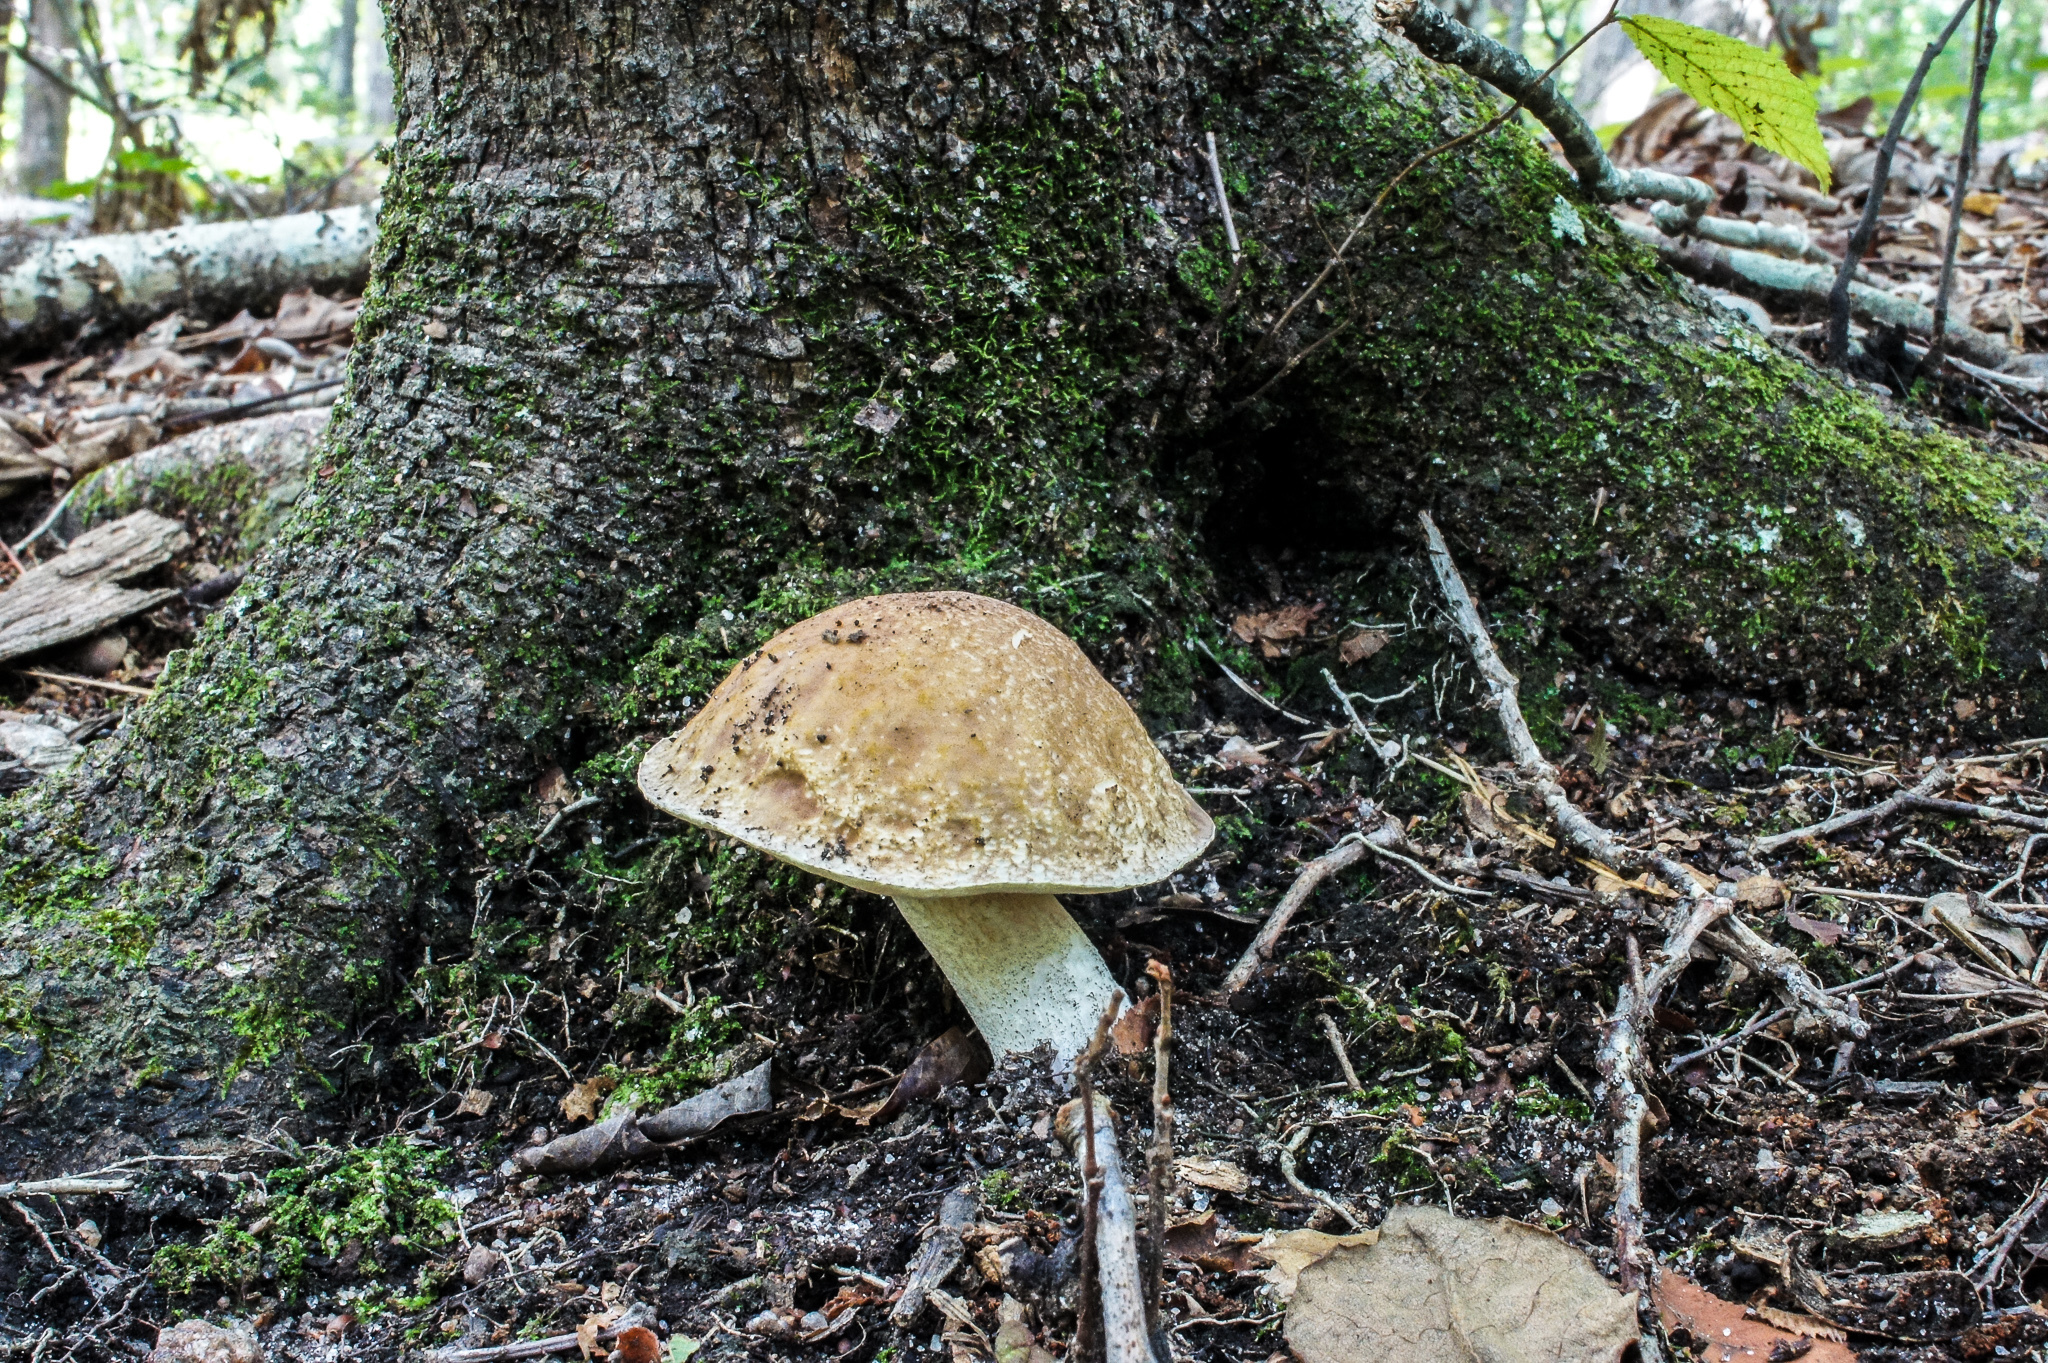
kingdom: Fungi
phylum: Basidiomycota
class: Agaricomycetes
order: Boletales
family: Boletaceae
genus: Xanthoconium
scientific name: Xanthoconium separans
